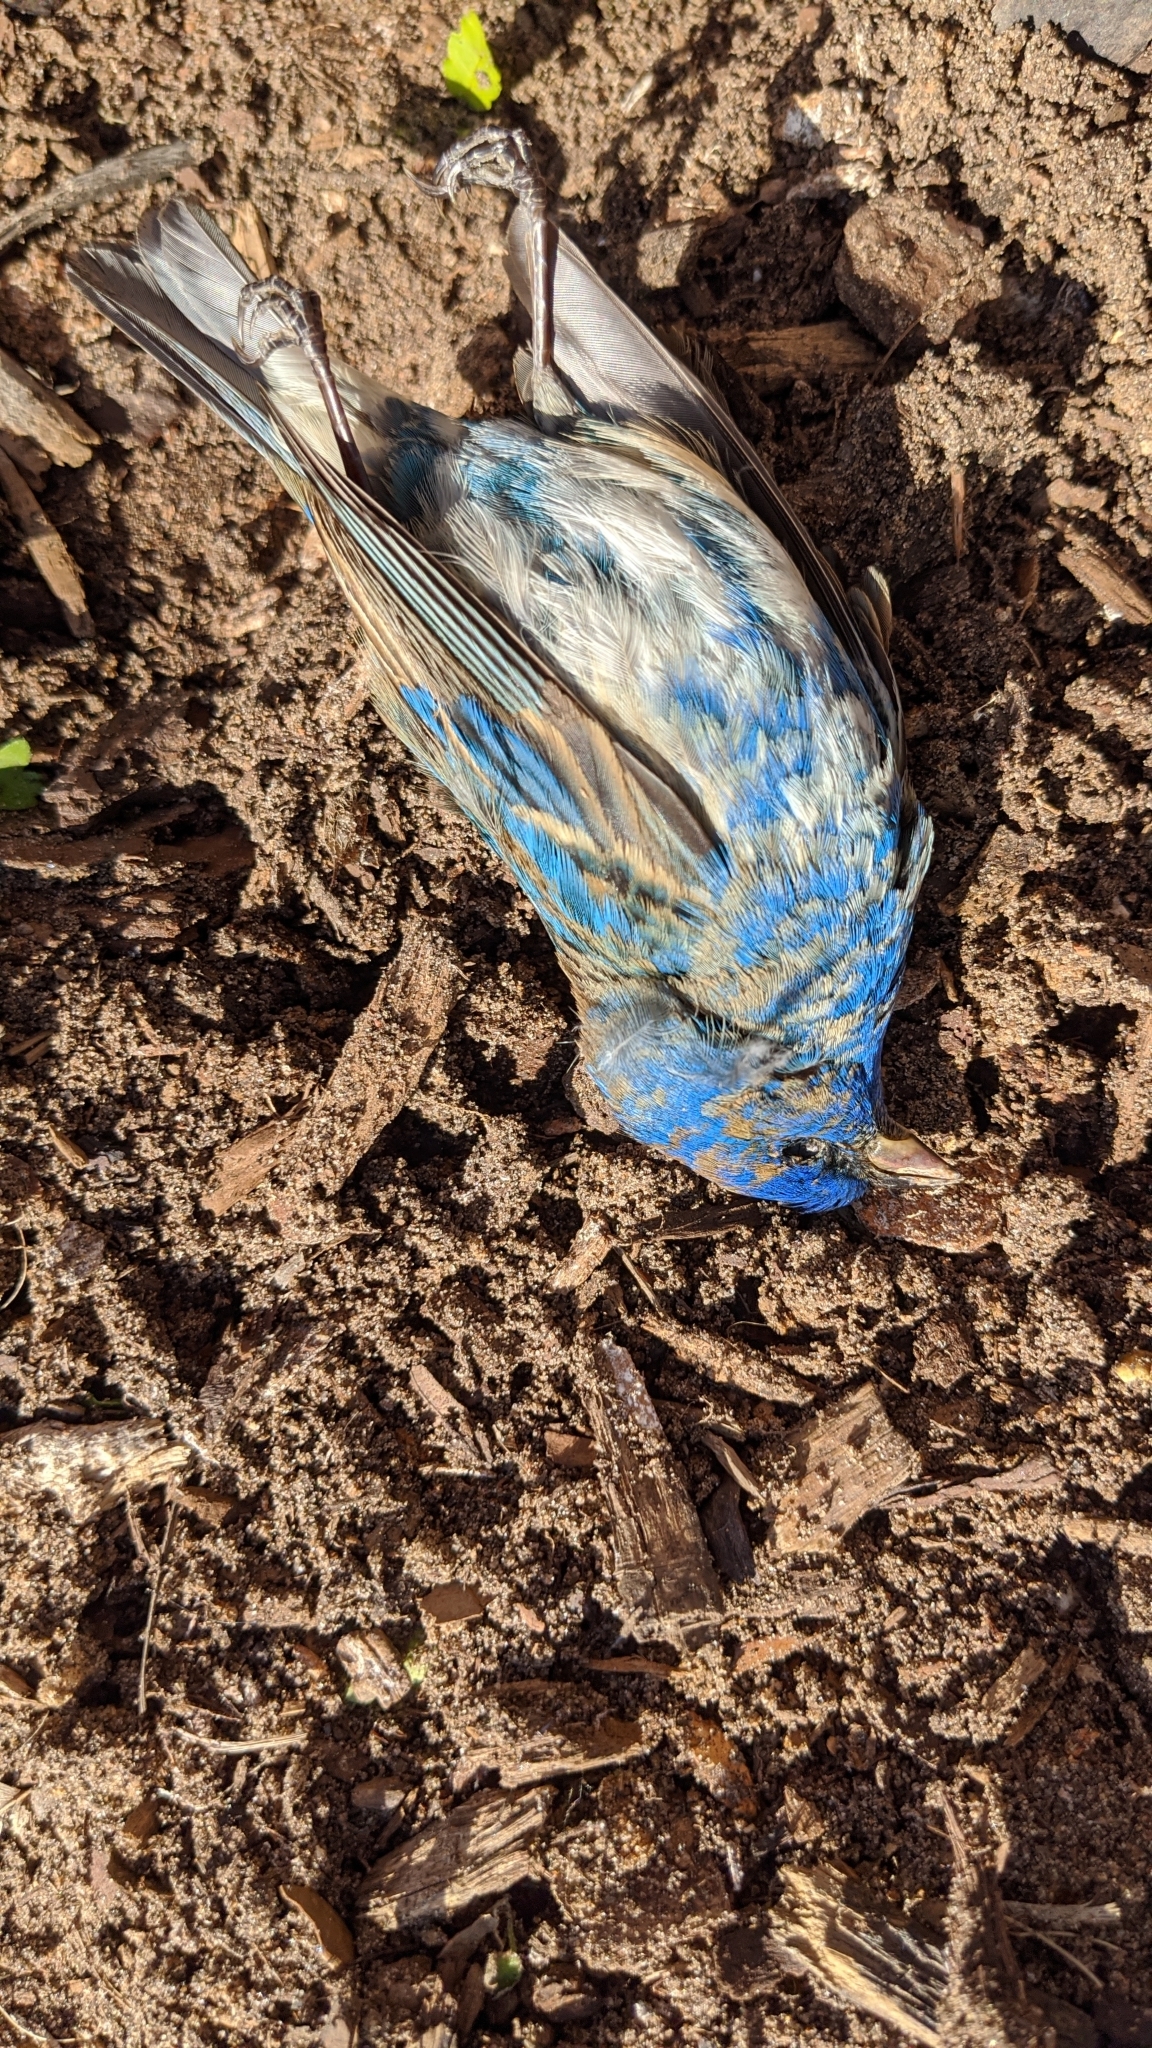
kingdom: Animalia
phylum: Chordata
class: Aves
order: Passeriformes
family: Cardinalidae
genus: Passerina
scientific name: Passerina cyanea
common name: Indigo bunting
